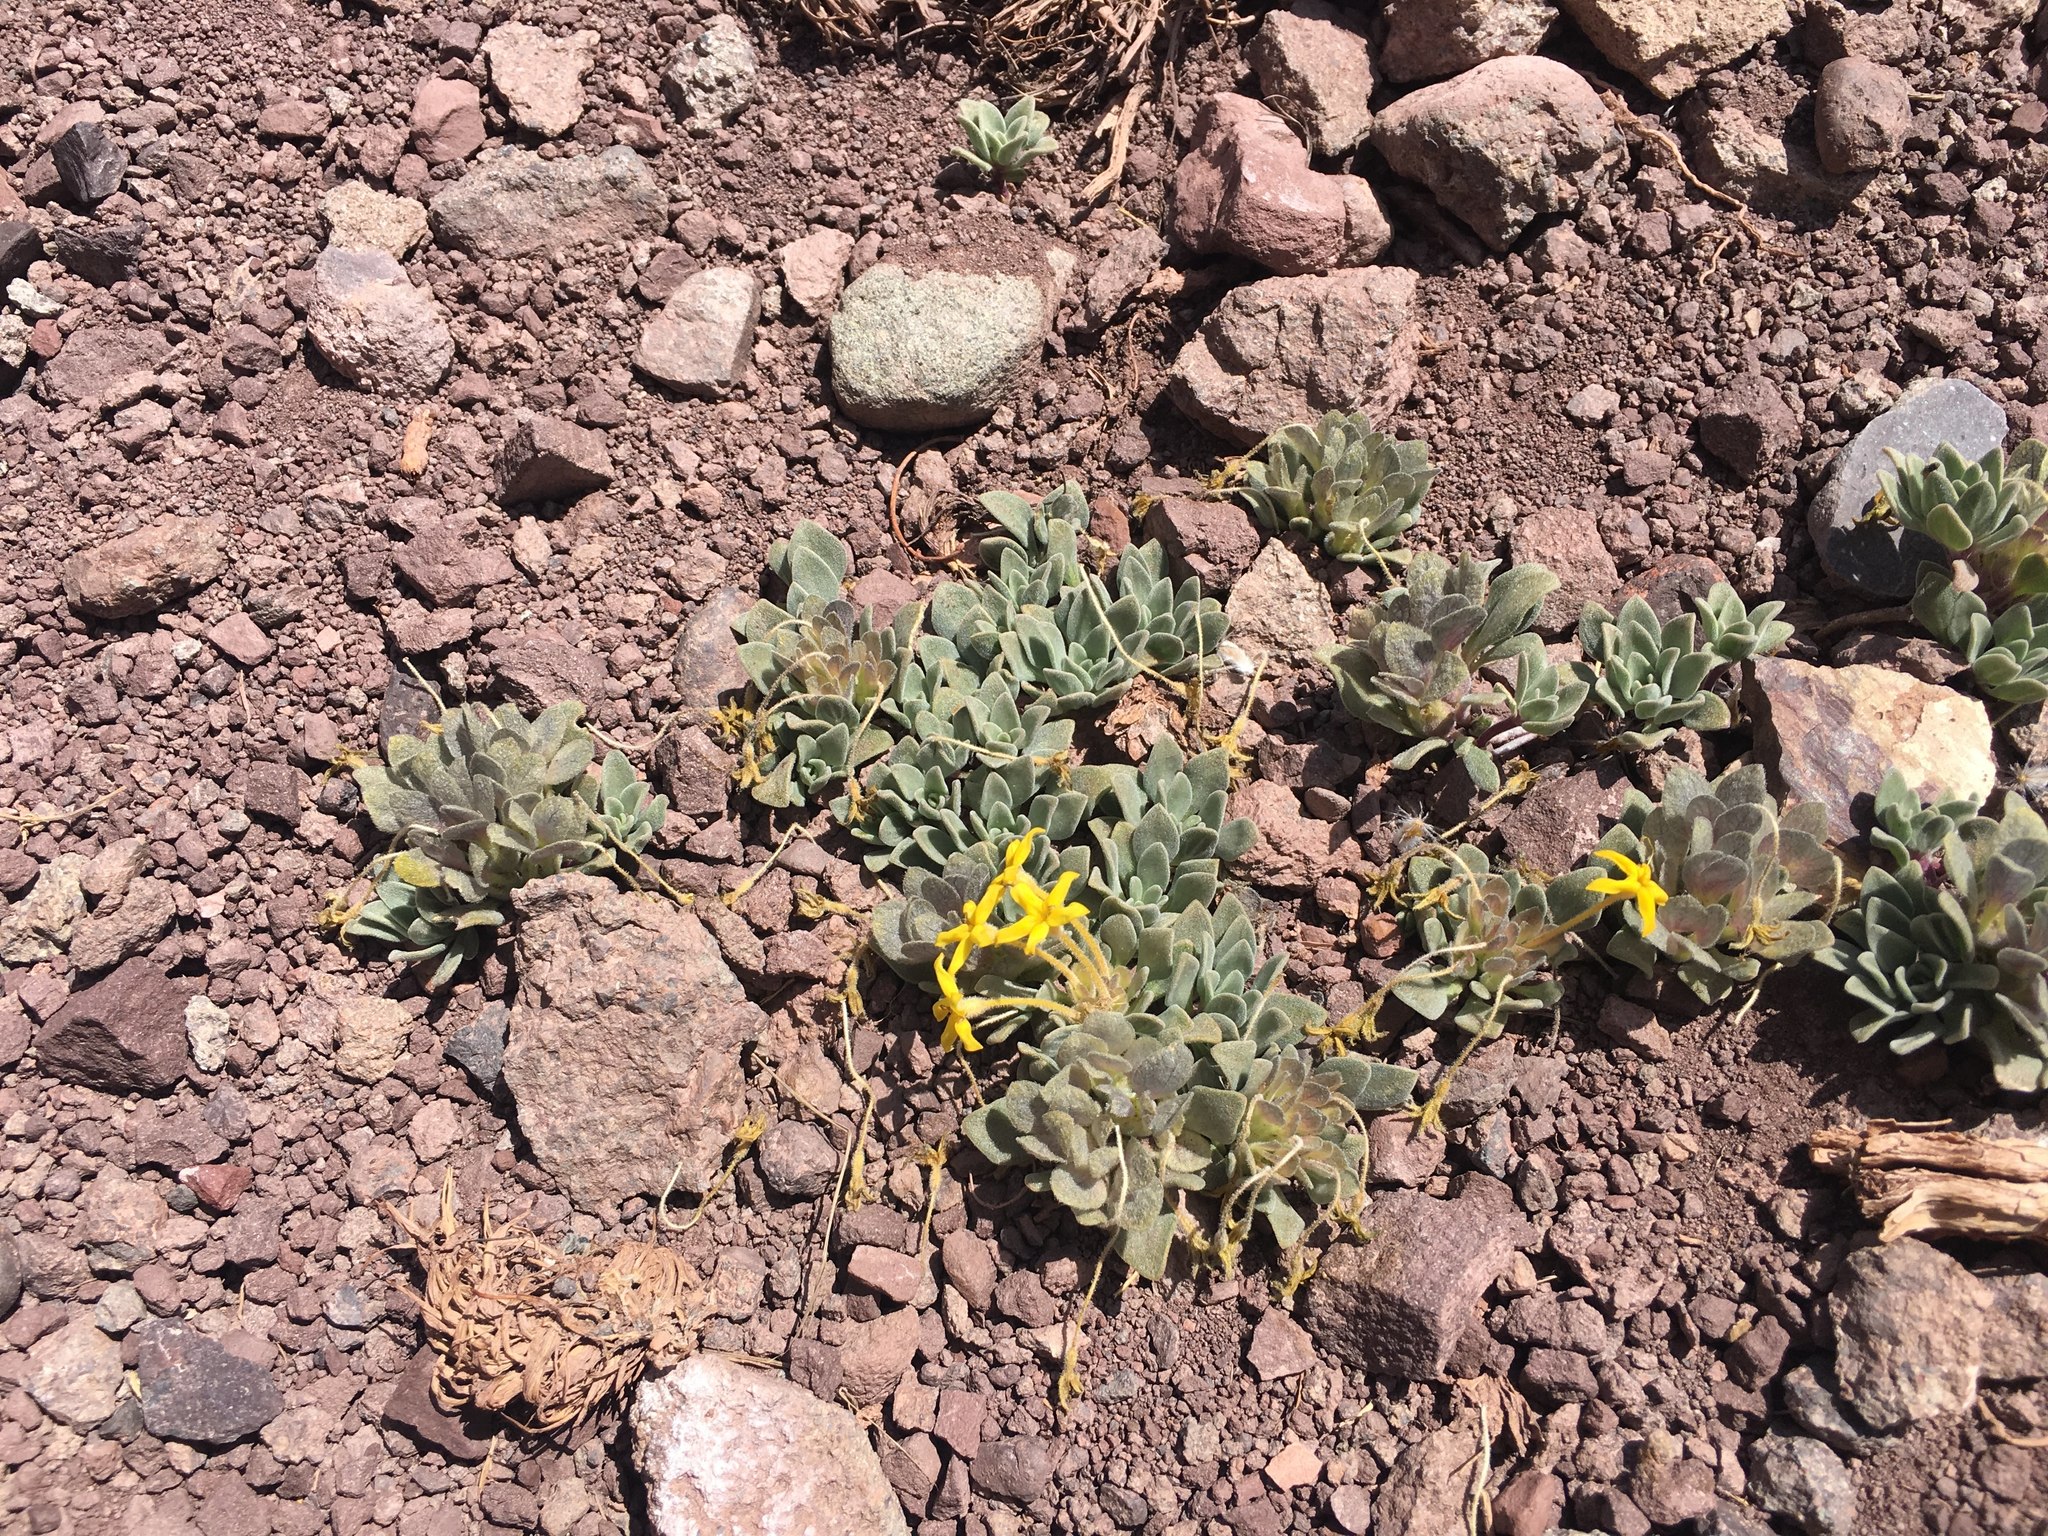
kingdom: Plantae
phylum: Tracheophyta
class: Magnoliopsida
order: Gentianales
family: Rubiaceae
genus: Cruckshanksia
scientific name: Cruckshanksia macrantha
